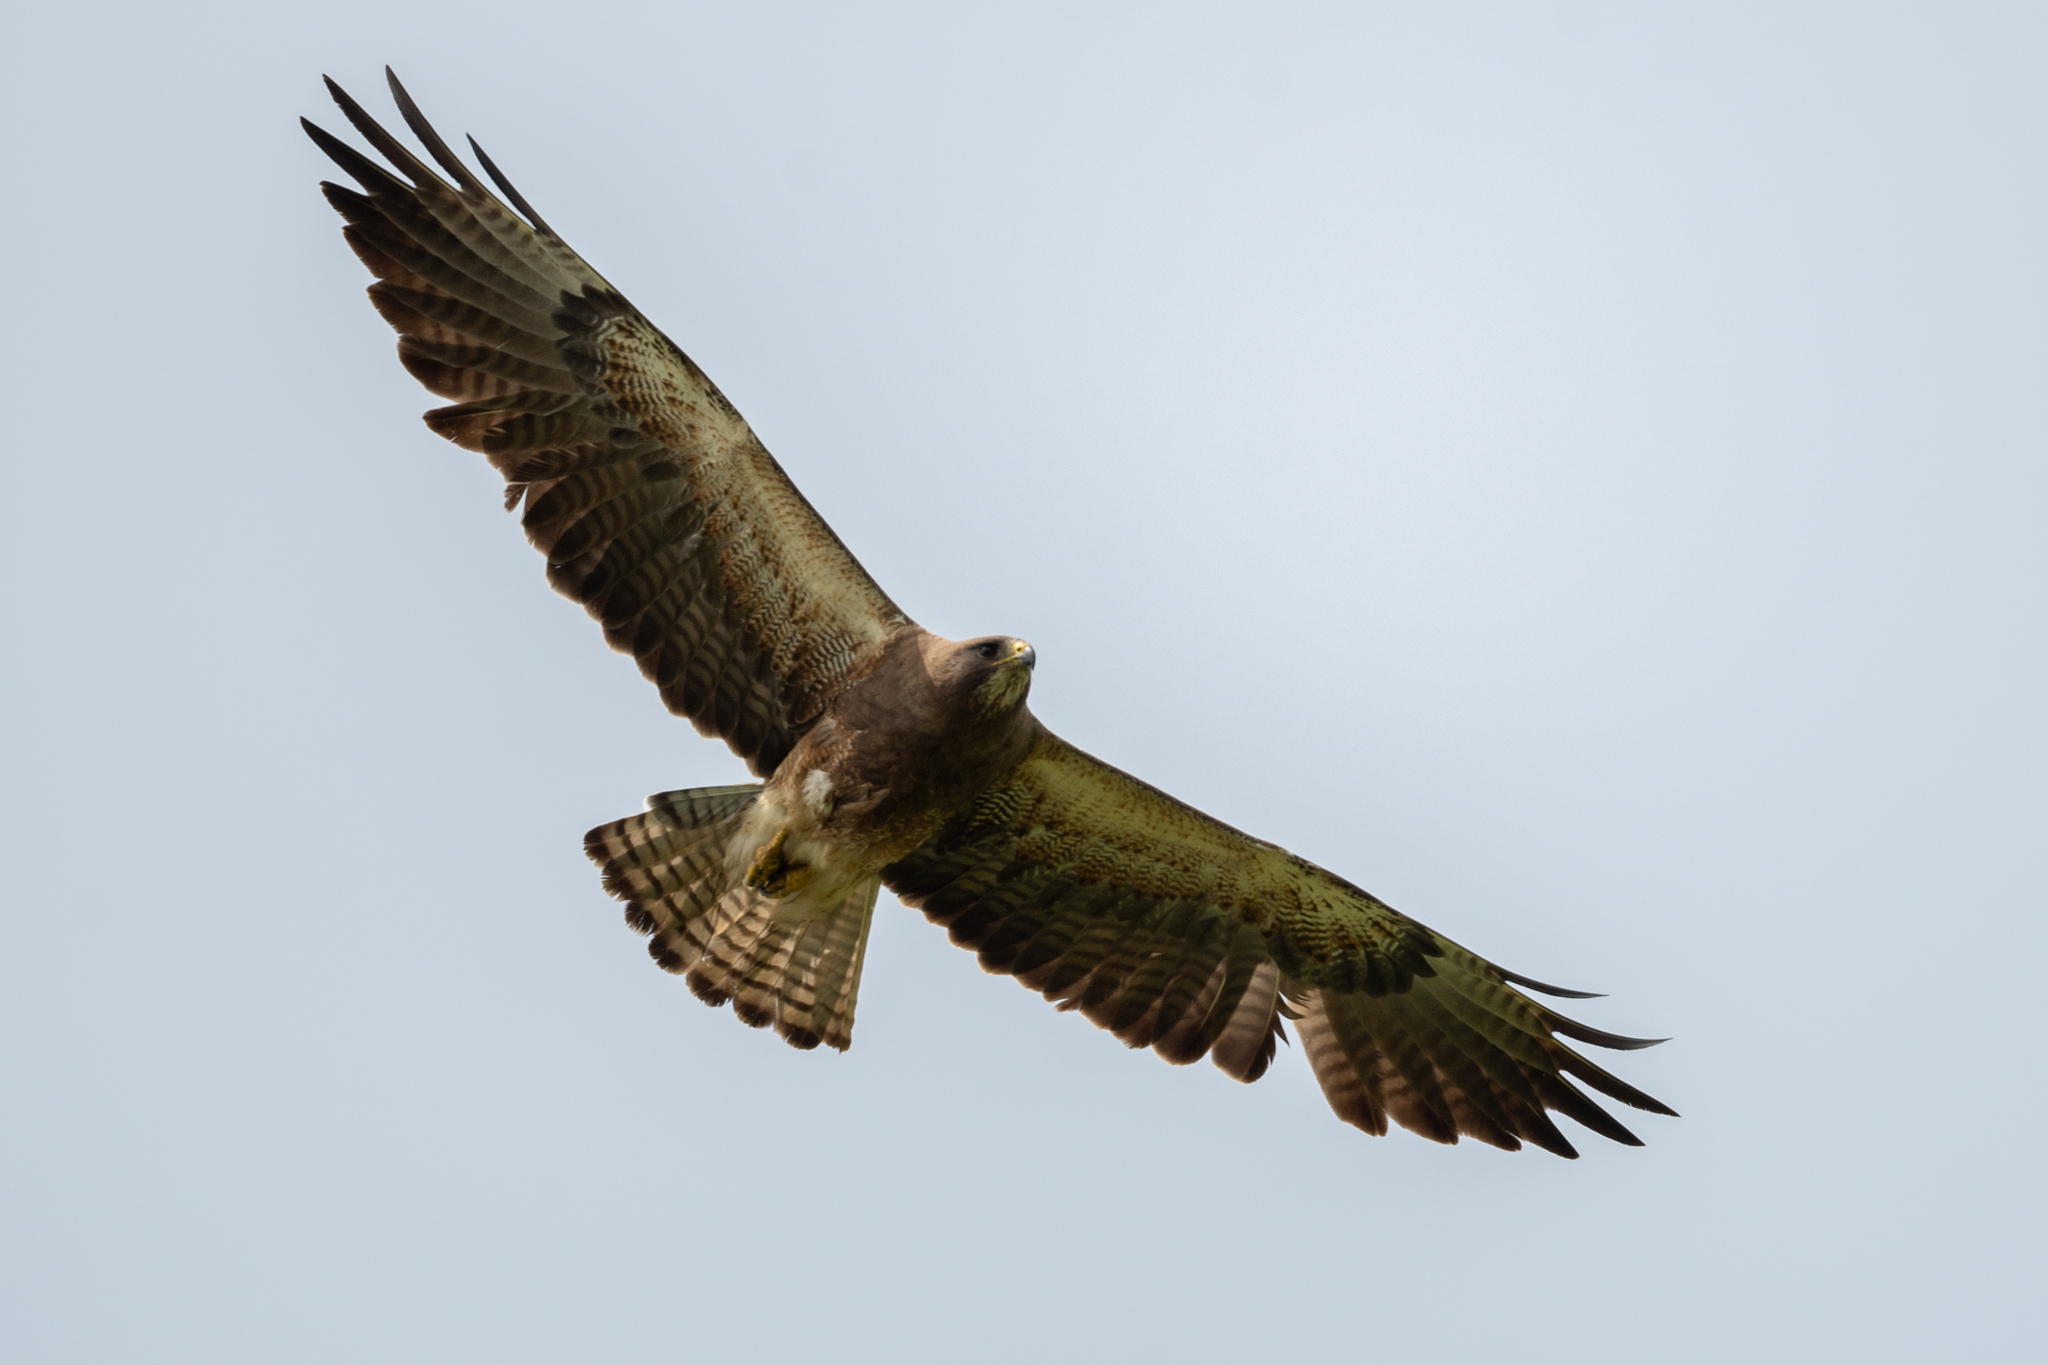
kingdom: Animalia
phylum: Chordata
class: Aves
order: Accipitriformes
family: Accipitridae
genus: Buteo
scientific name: Buteo swainsoni
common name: Swainson's hawk
